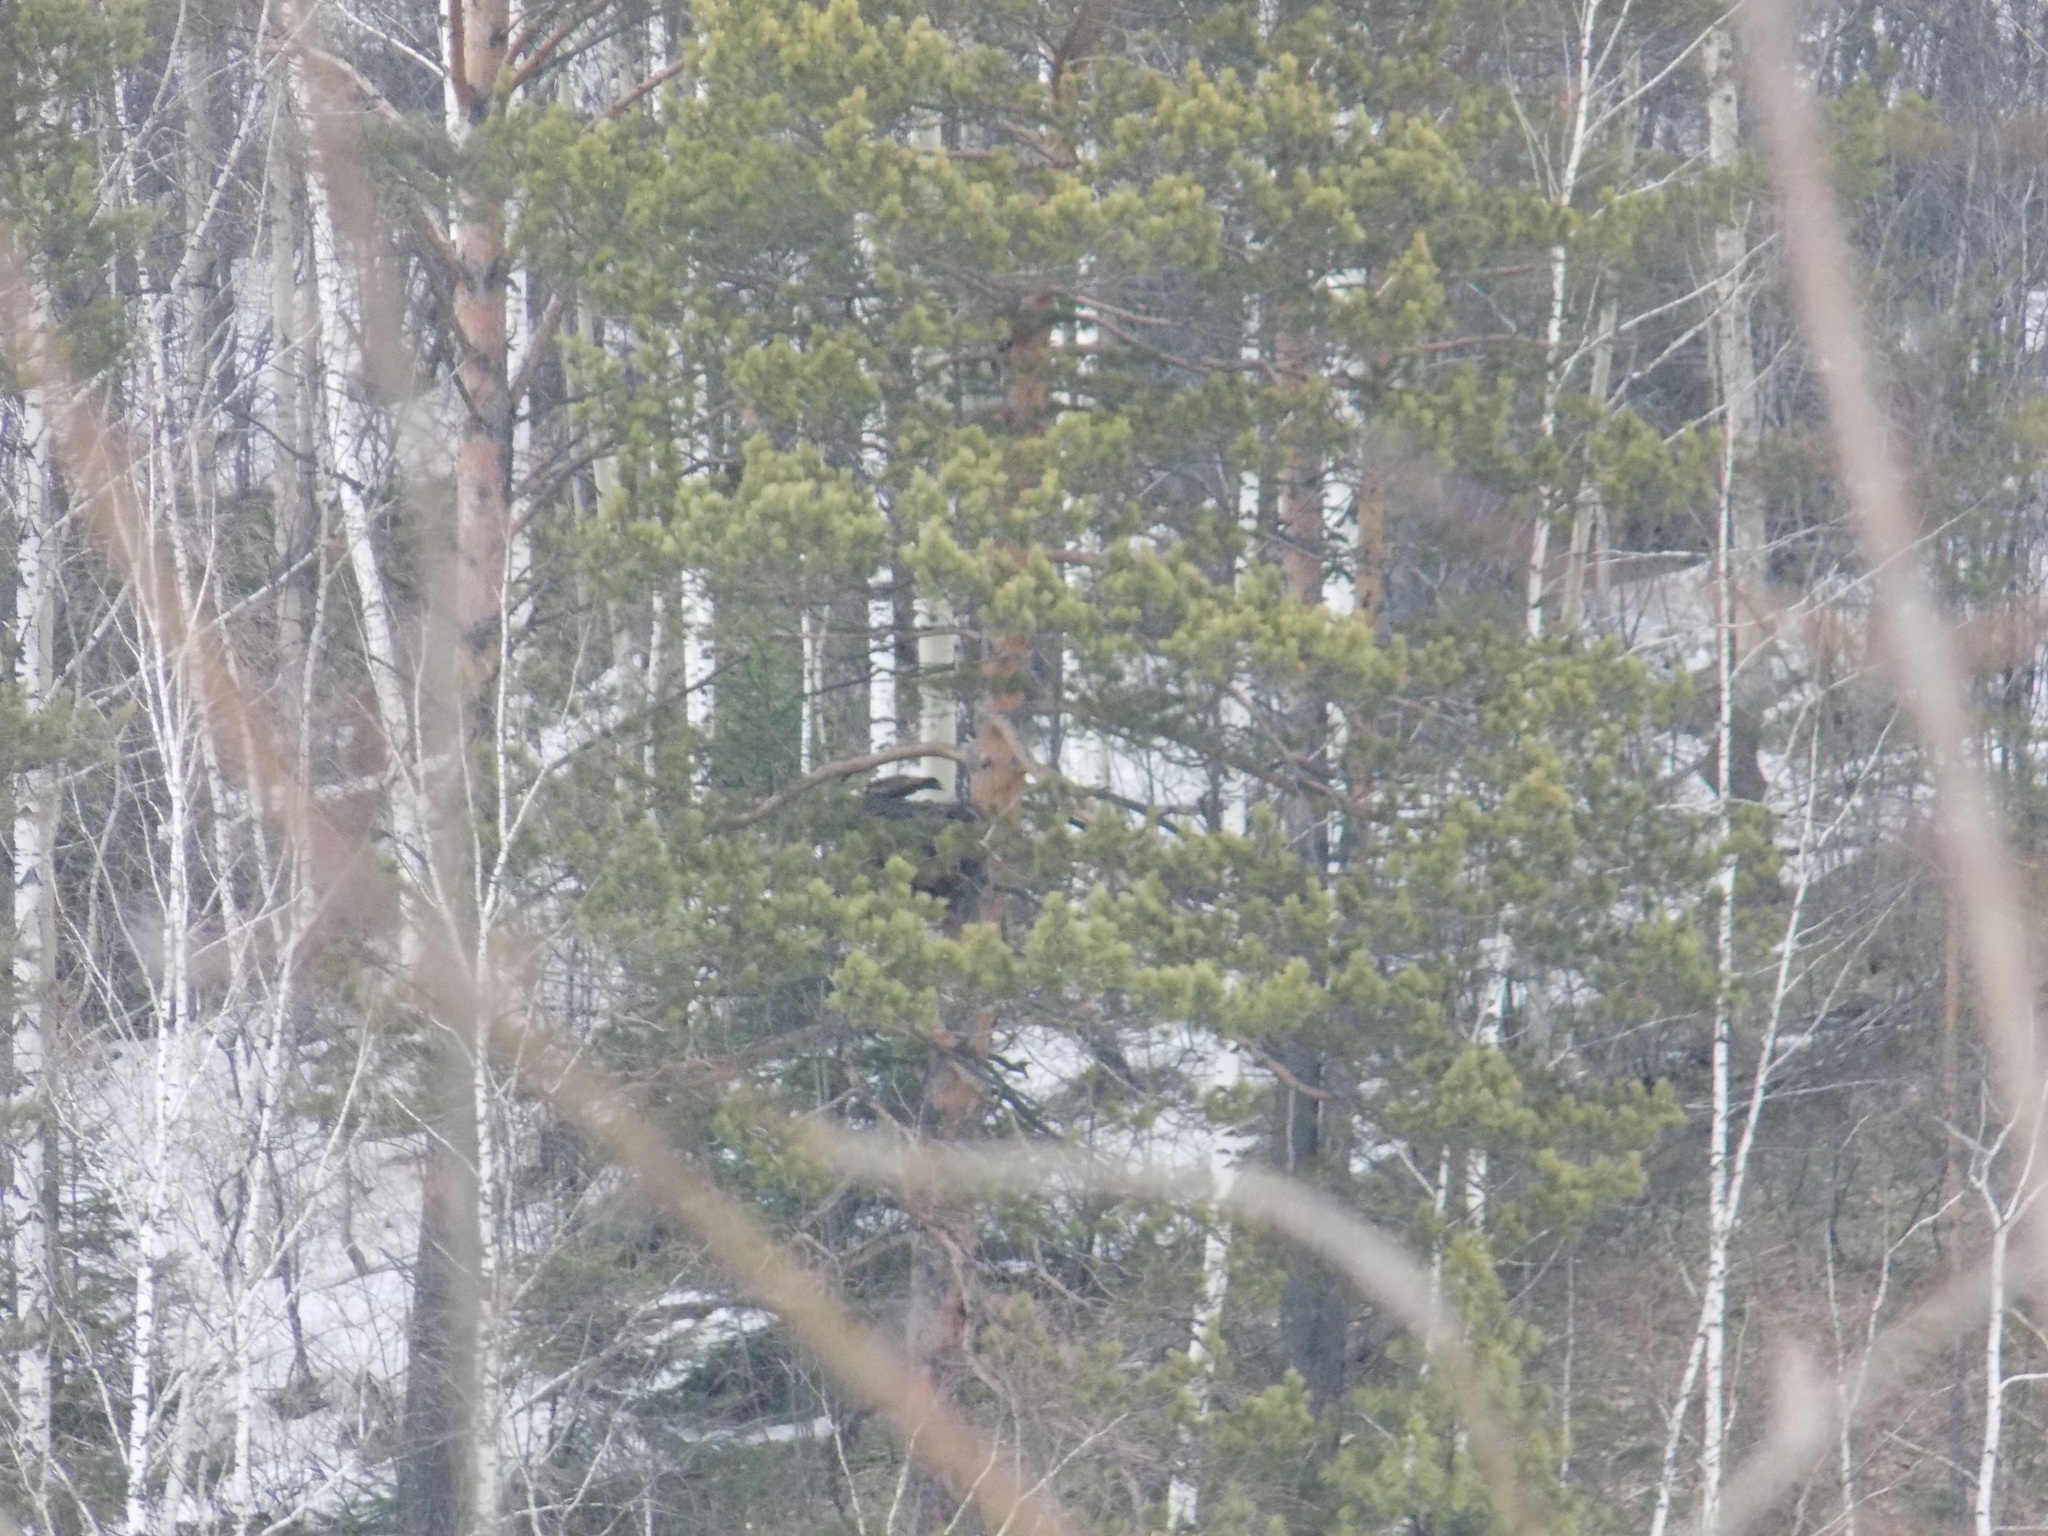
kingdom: Animalia
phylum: Chordata
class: Aves
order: Accipitriformes
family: Accipitridae
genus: Milvus
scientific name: Milvus migrans
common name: Black kite
